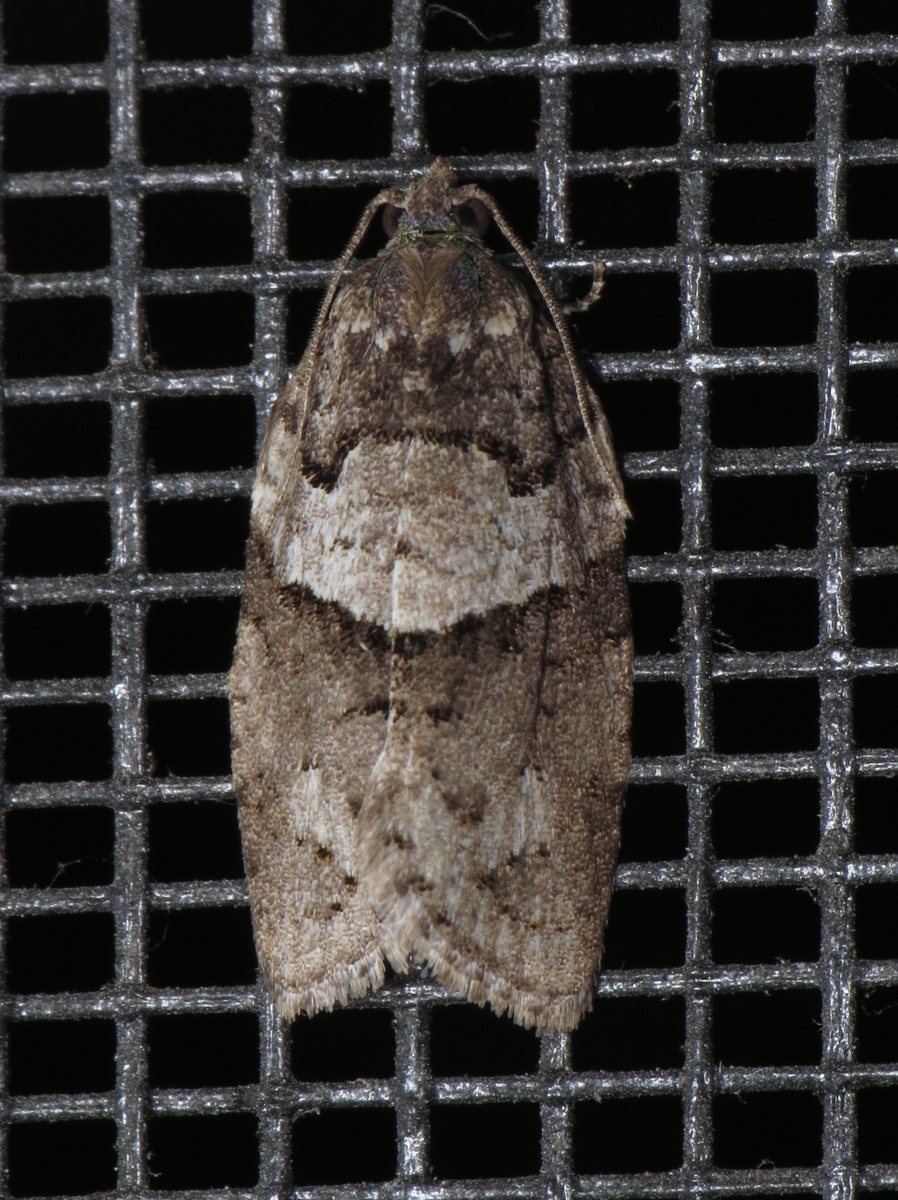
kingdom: Animalia
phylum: Arthropoda
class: Insecta
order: Lepidoptera
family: Tortricidae
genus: Syndemis
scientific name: Syndemis afflictana
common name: Gray leafroller moth
